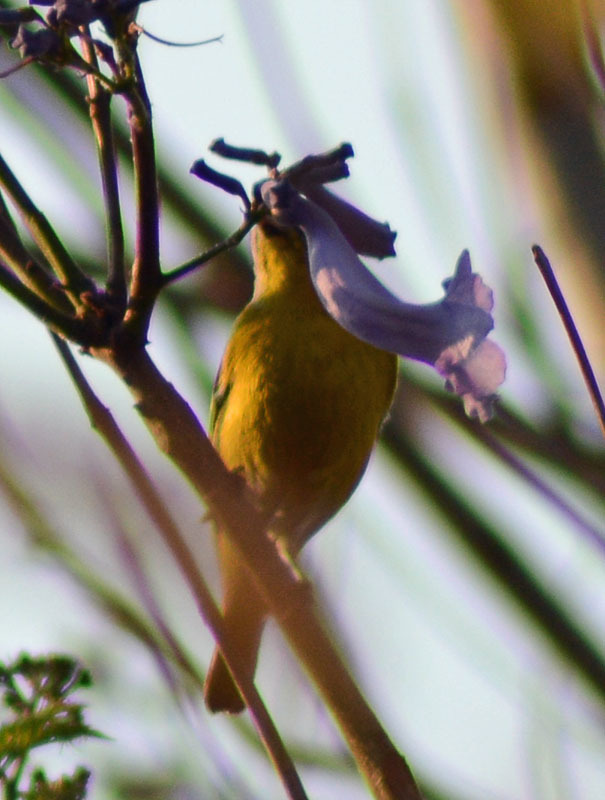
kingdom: Animalia
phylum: Chordata
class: Aves
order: Passeriformes
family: Parulidae
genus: Leiothlypis
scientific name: Leiothlypis ruficapilla
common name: Nashville warbler
